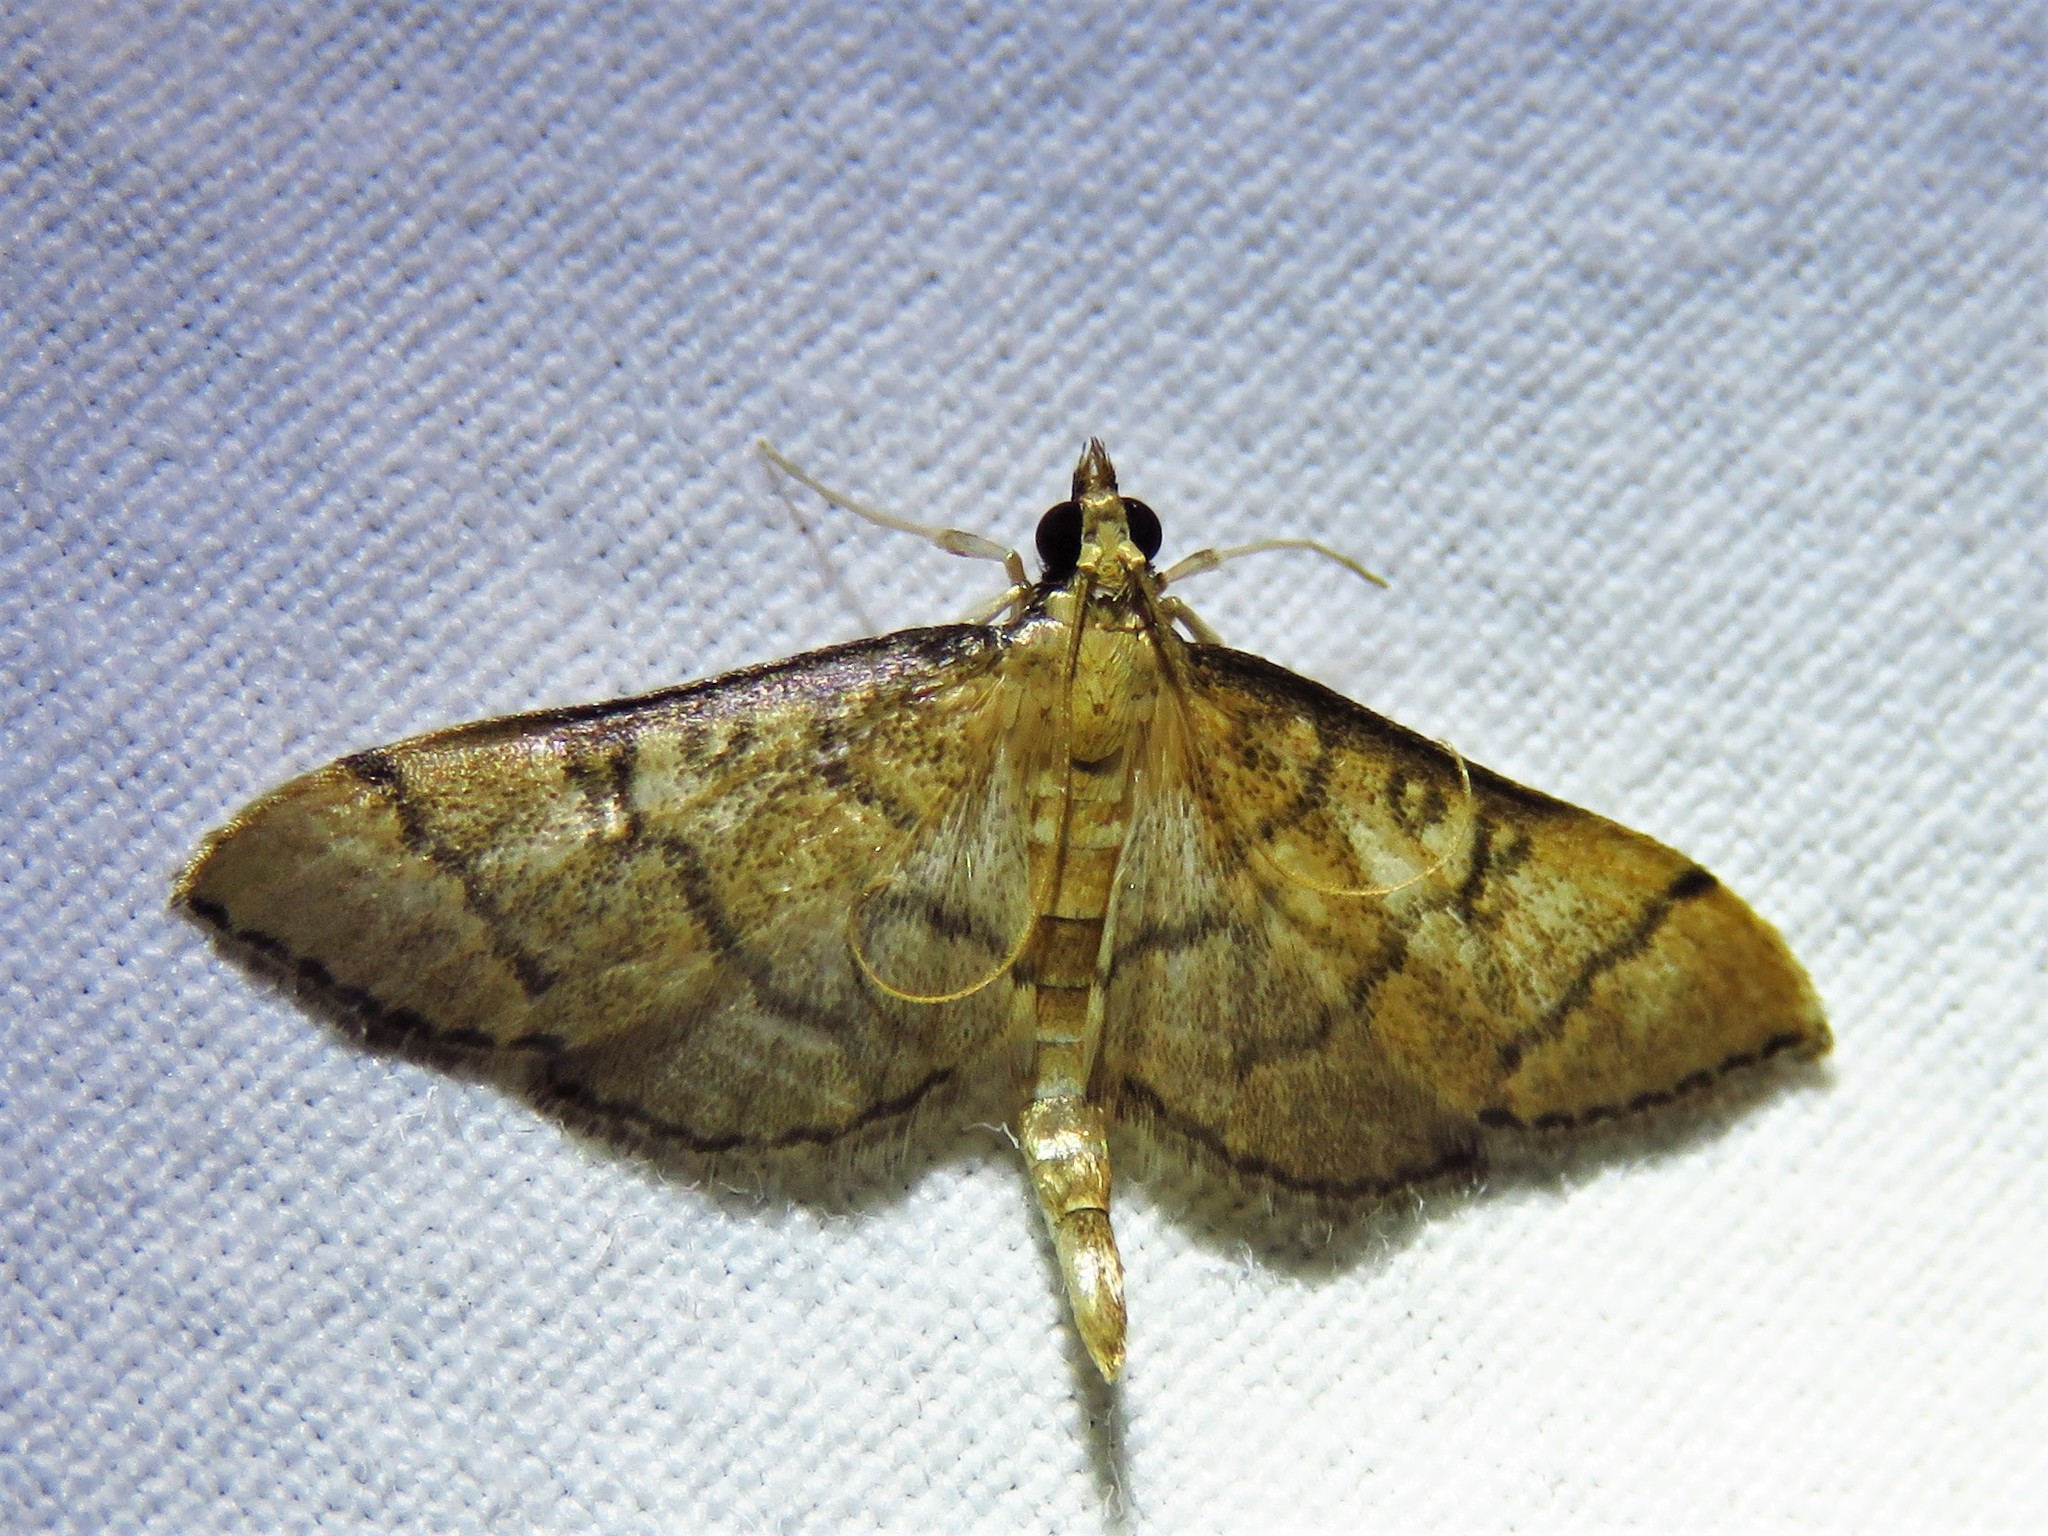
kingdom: Animalia
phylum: Arthropoda
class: Insecta
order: Lepidoptera
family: Crambidae
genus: Lamprosema
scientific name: Lamprosema Blepharomastix ranalis
